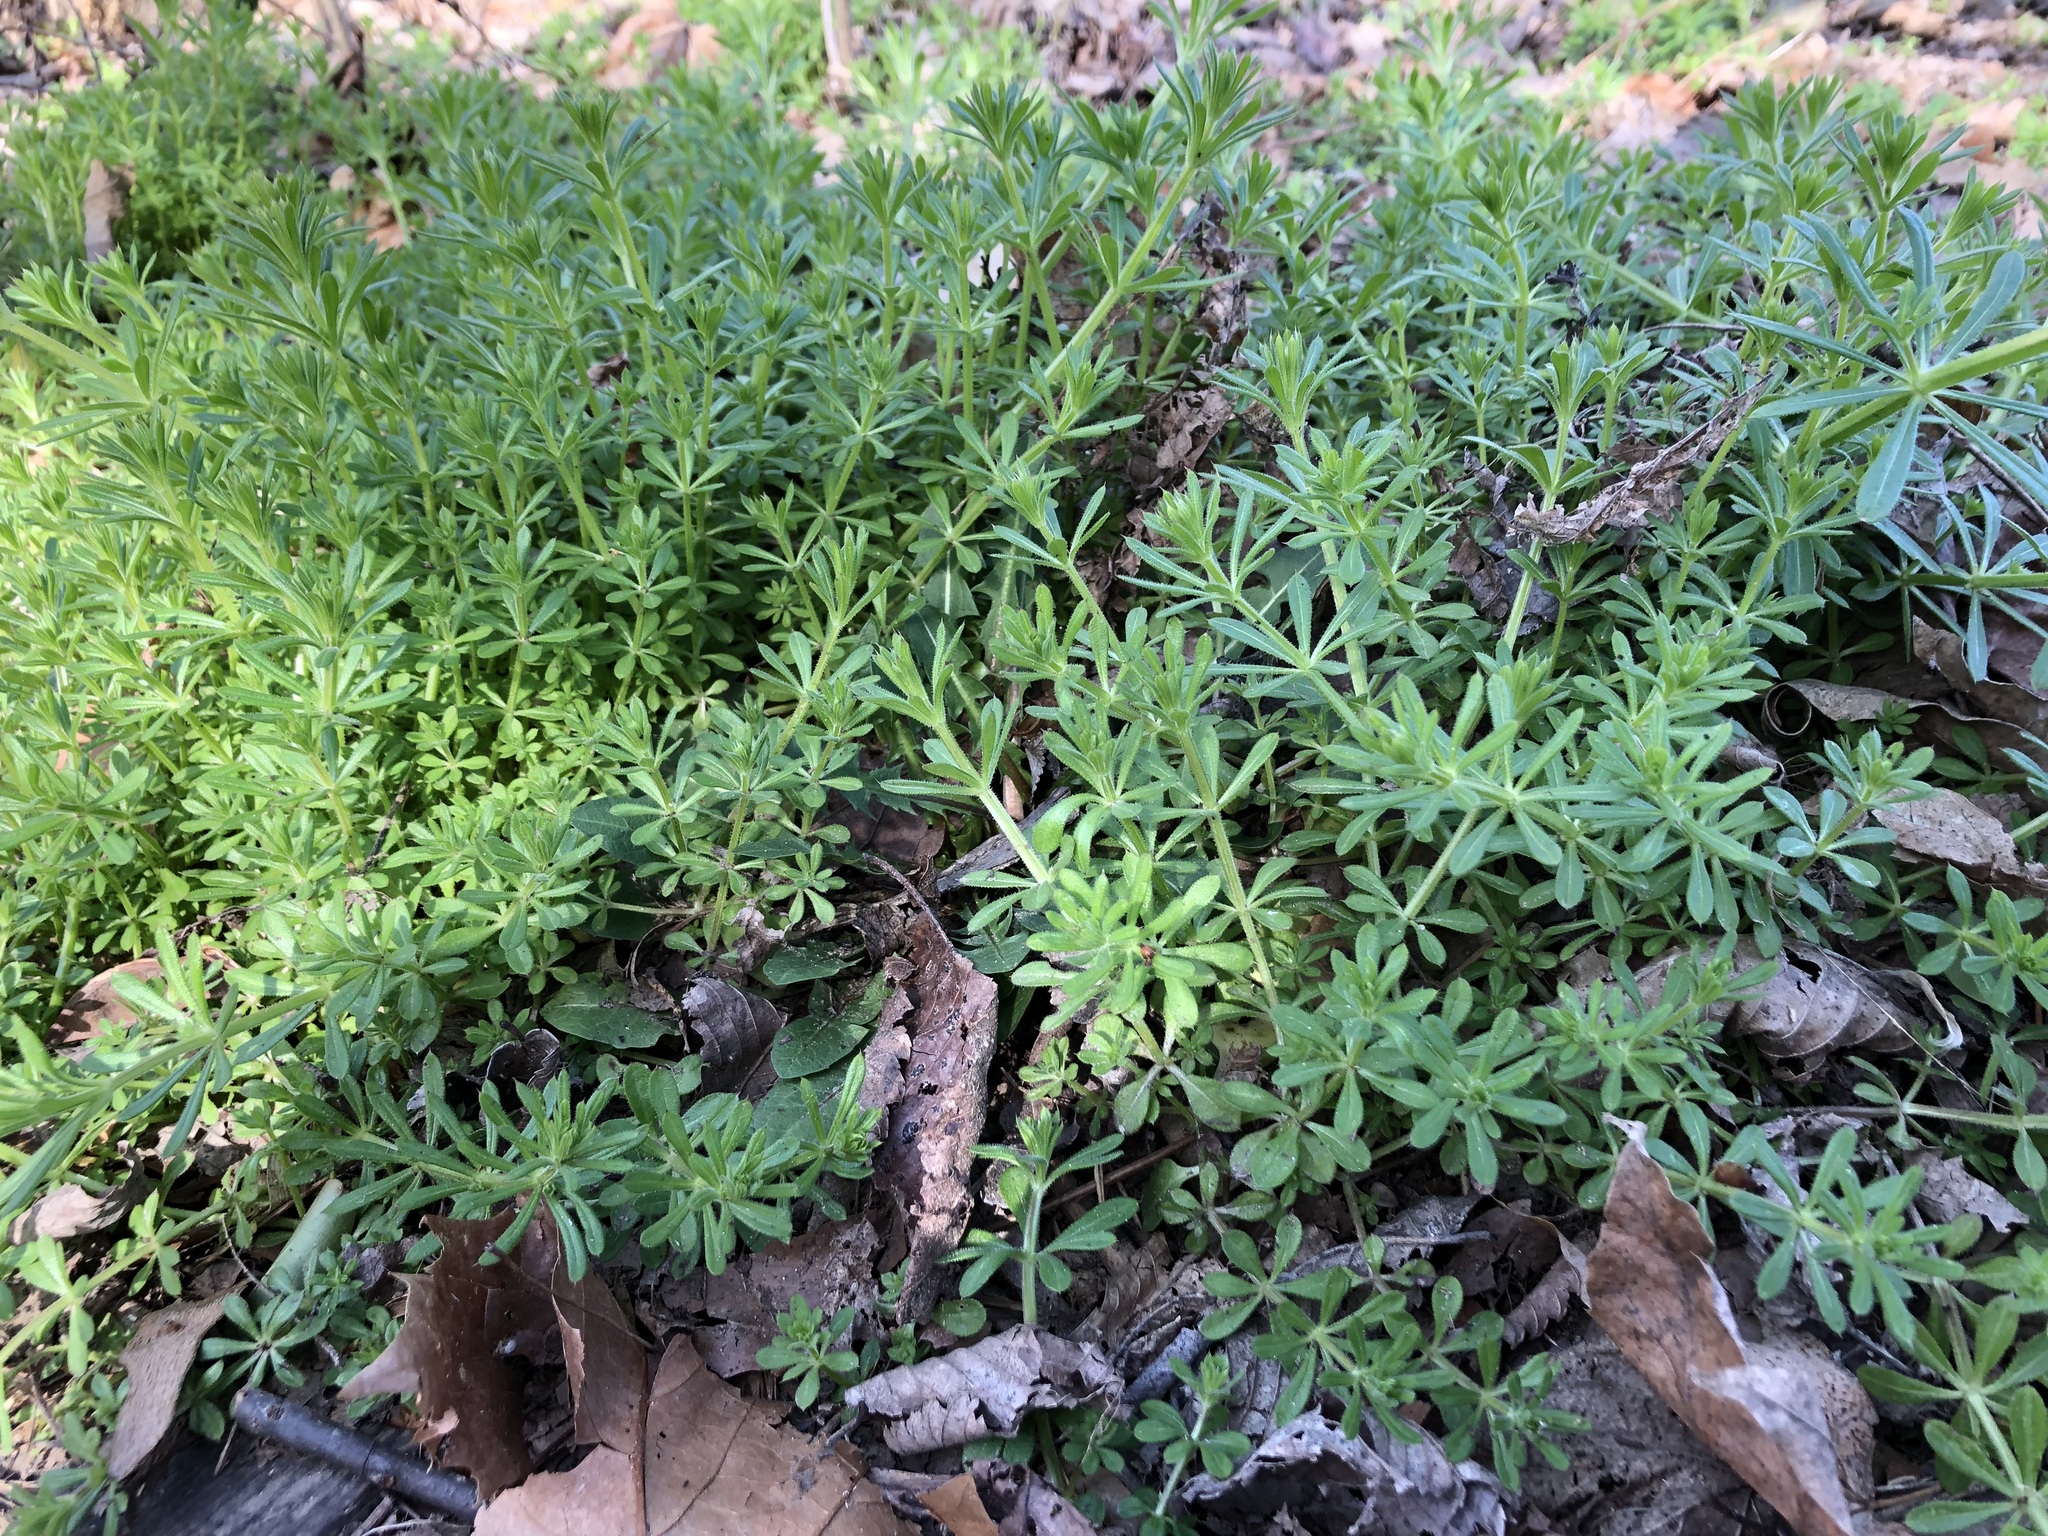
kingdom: Plantae
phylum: Tracheophyta
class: Magnoliopsida
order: Gentianales
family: Rubiaceae
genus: Galium
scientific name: Galium aparine
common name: Cleavers
